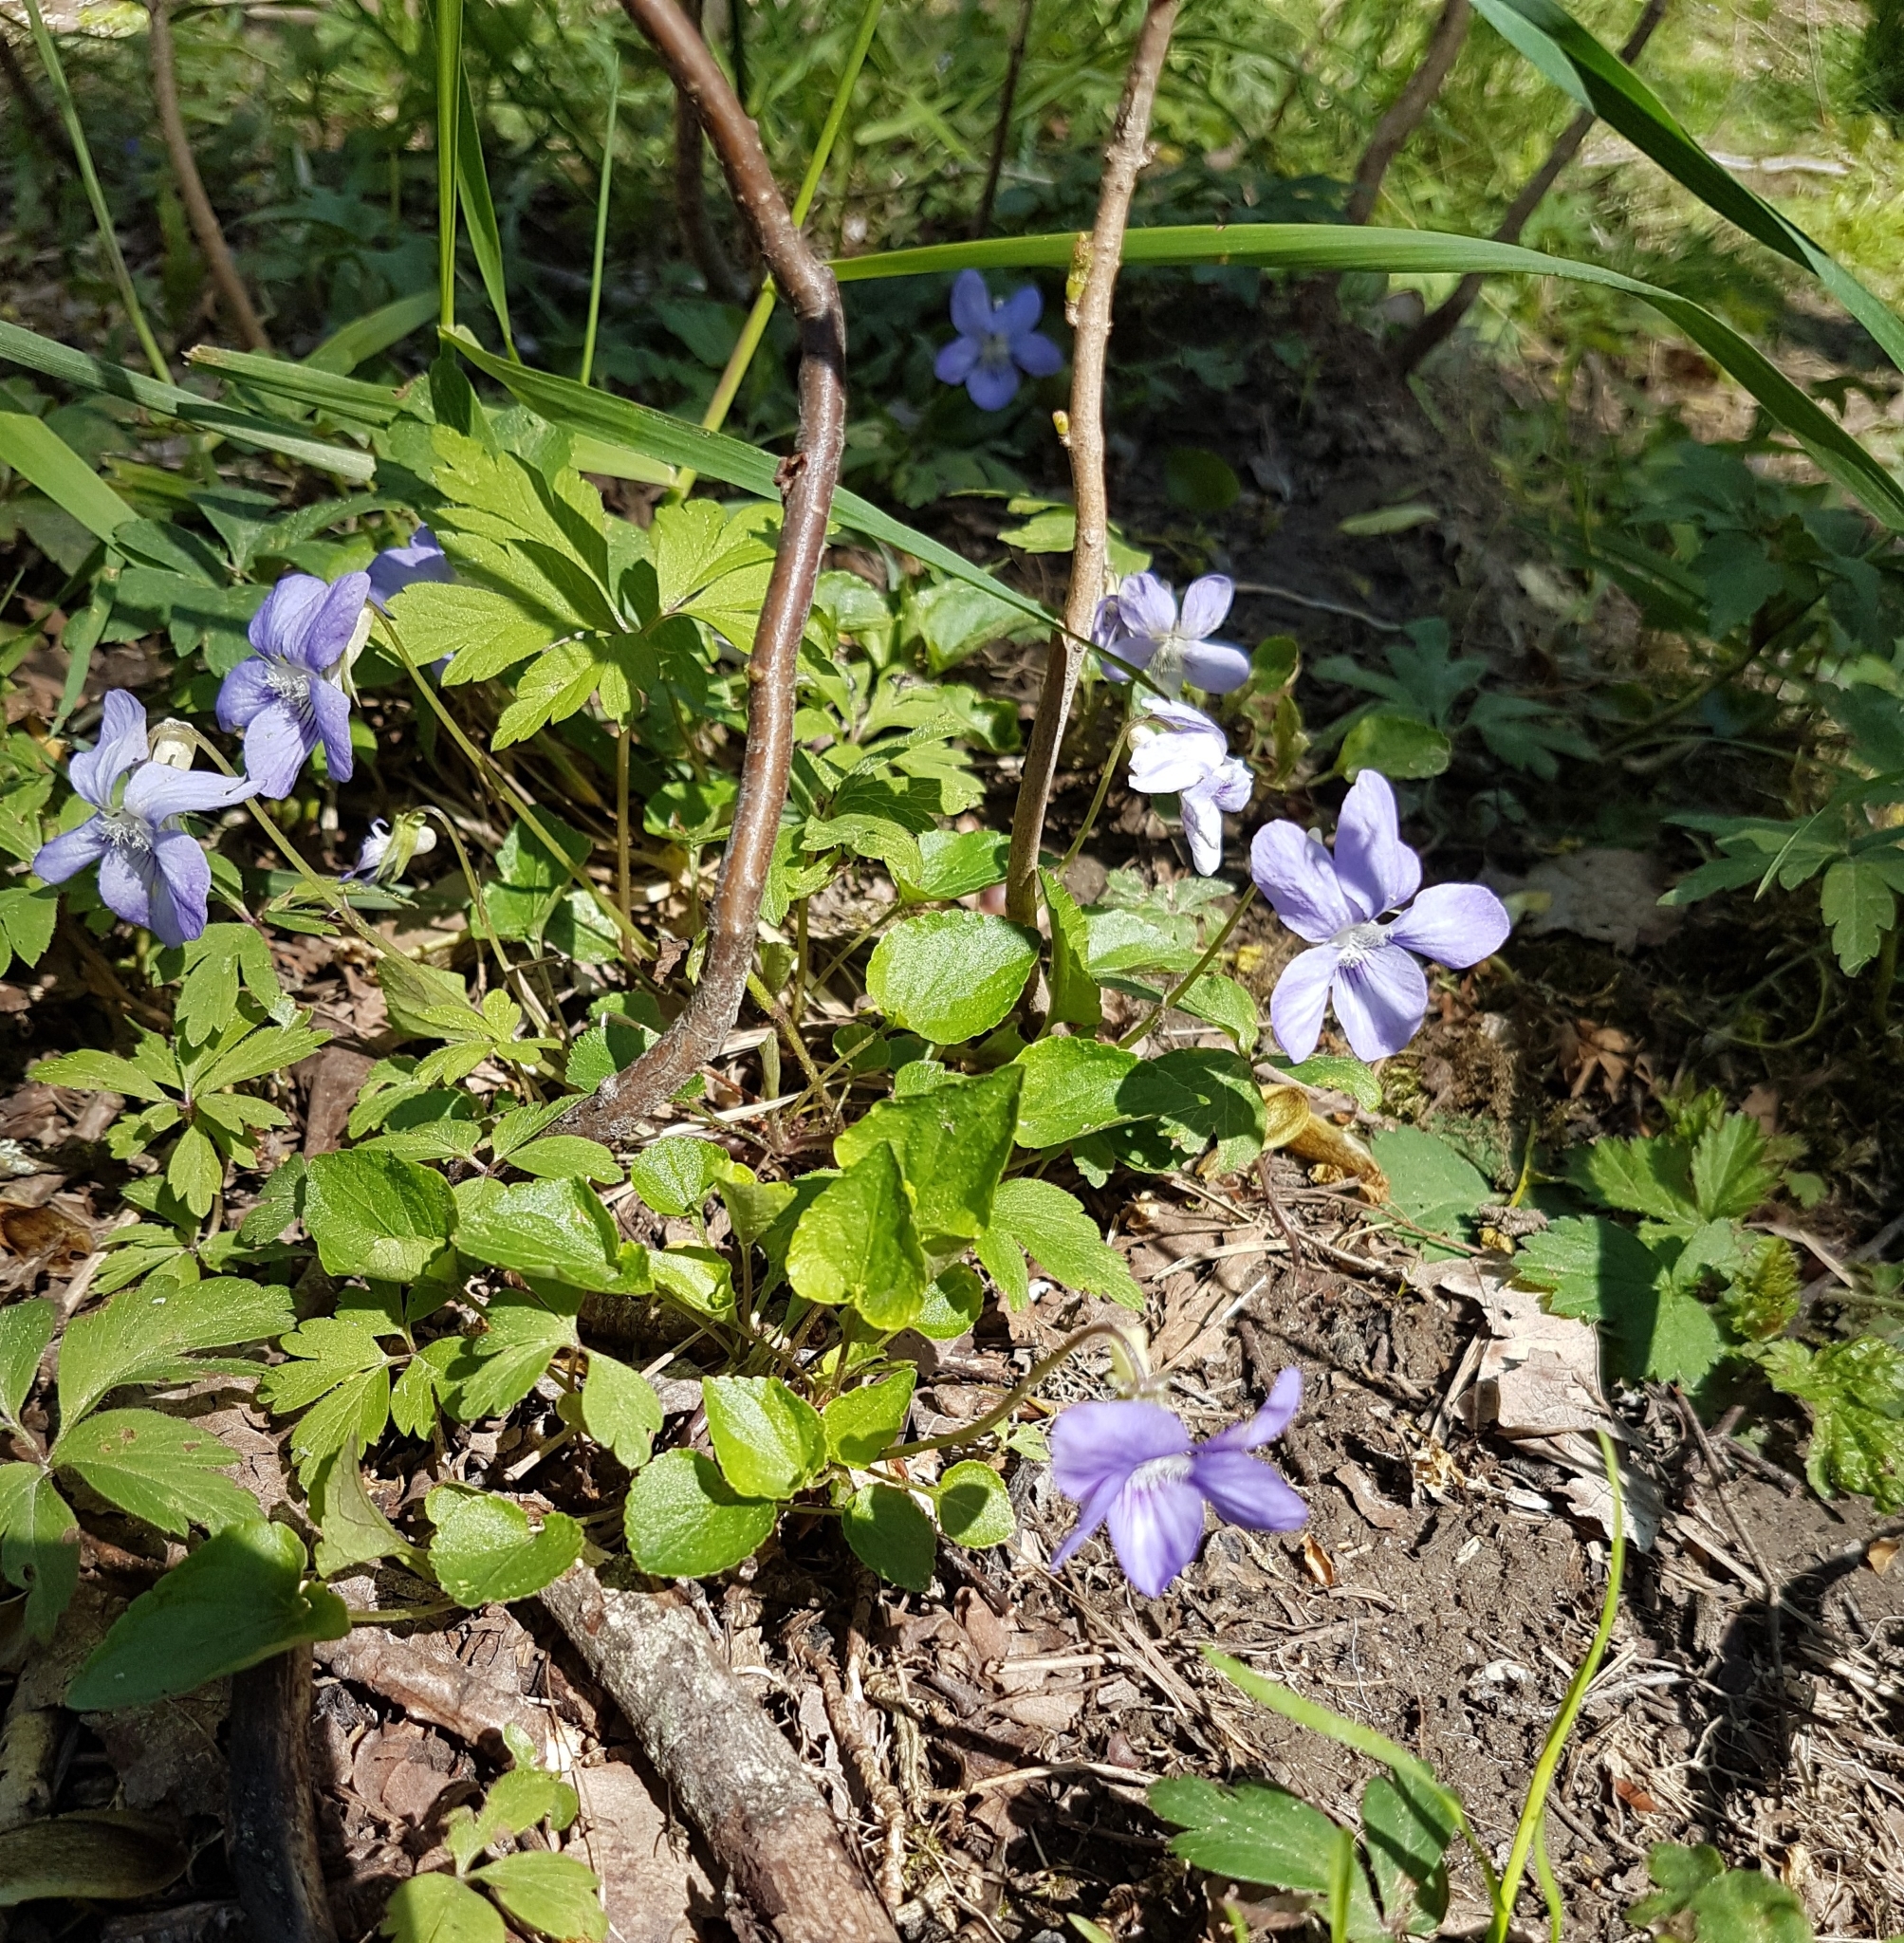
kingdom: Plantae
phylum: Tracheophyta
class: Magnoliopsida
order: Malpighiales
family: Violaceae
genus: Viola
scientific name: Viola riviniana
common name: Common dog-violet
